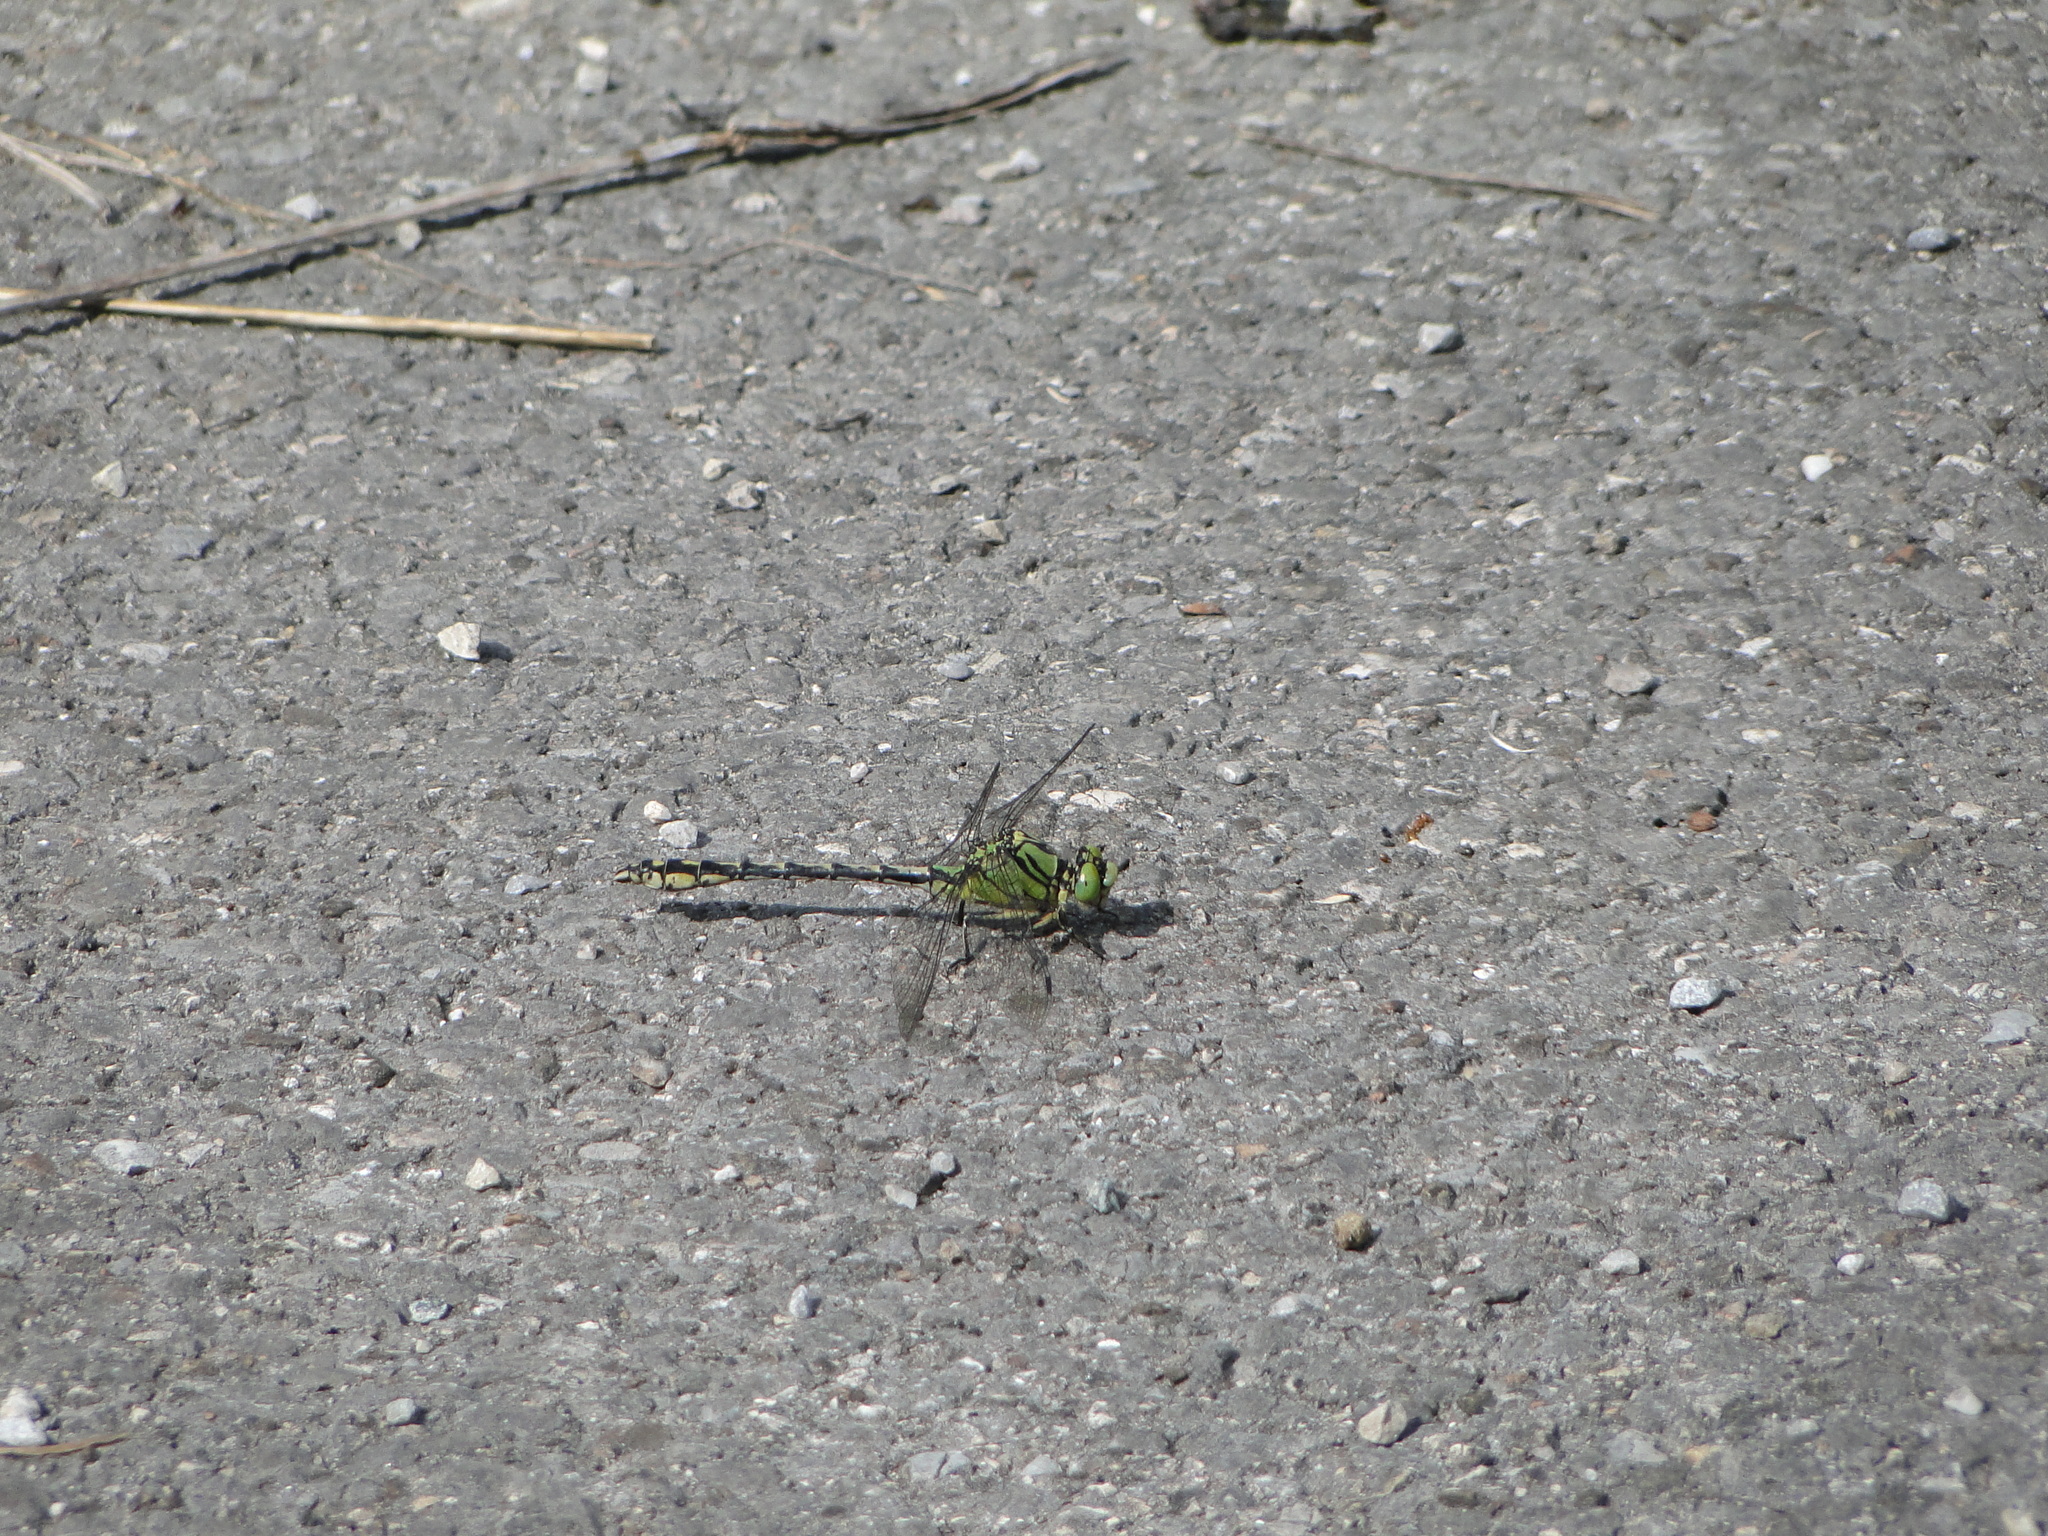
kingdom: Animalia
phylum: Arthropoda
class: Insecta
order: Odonata
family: Gomphidae
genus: Ophiogomphus
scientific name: Ophiogomphus cecilia
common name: Green snaketail
